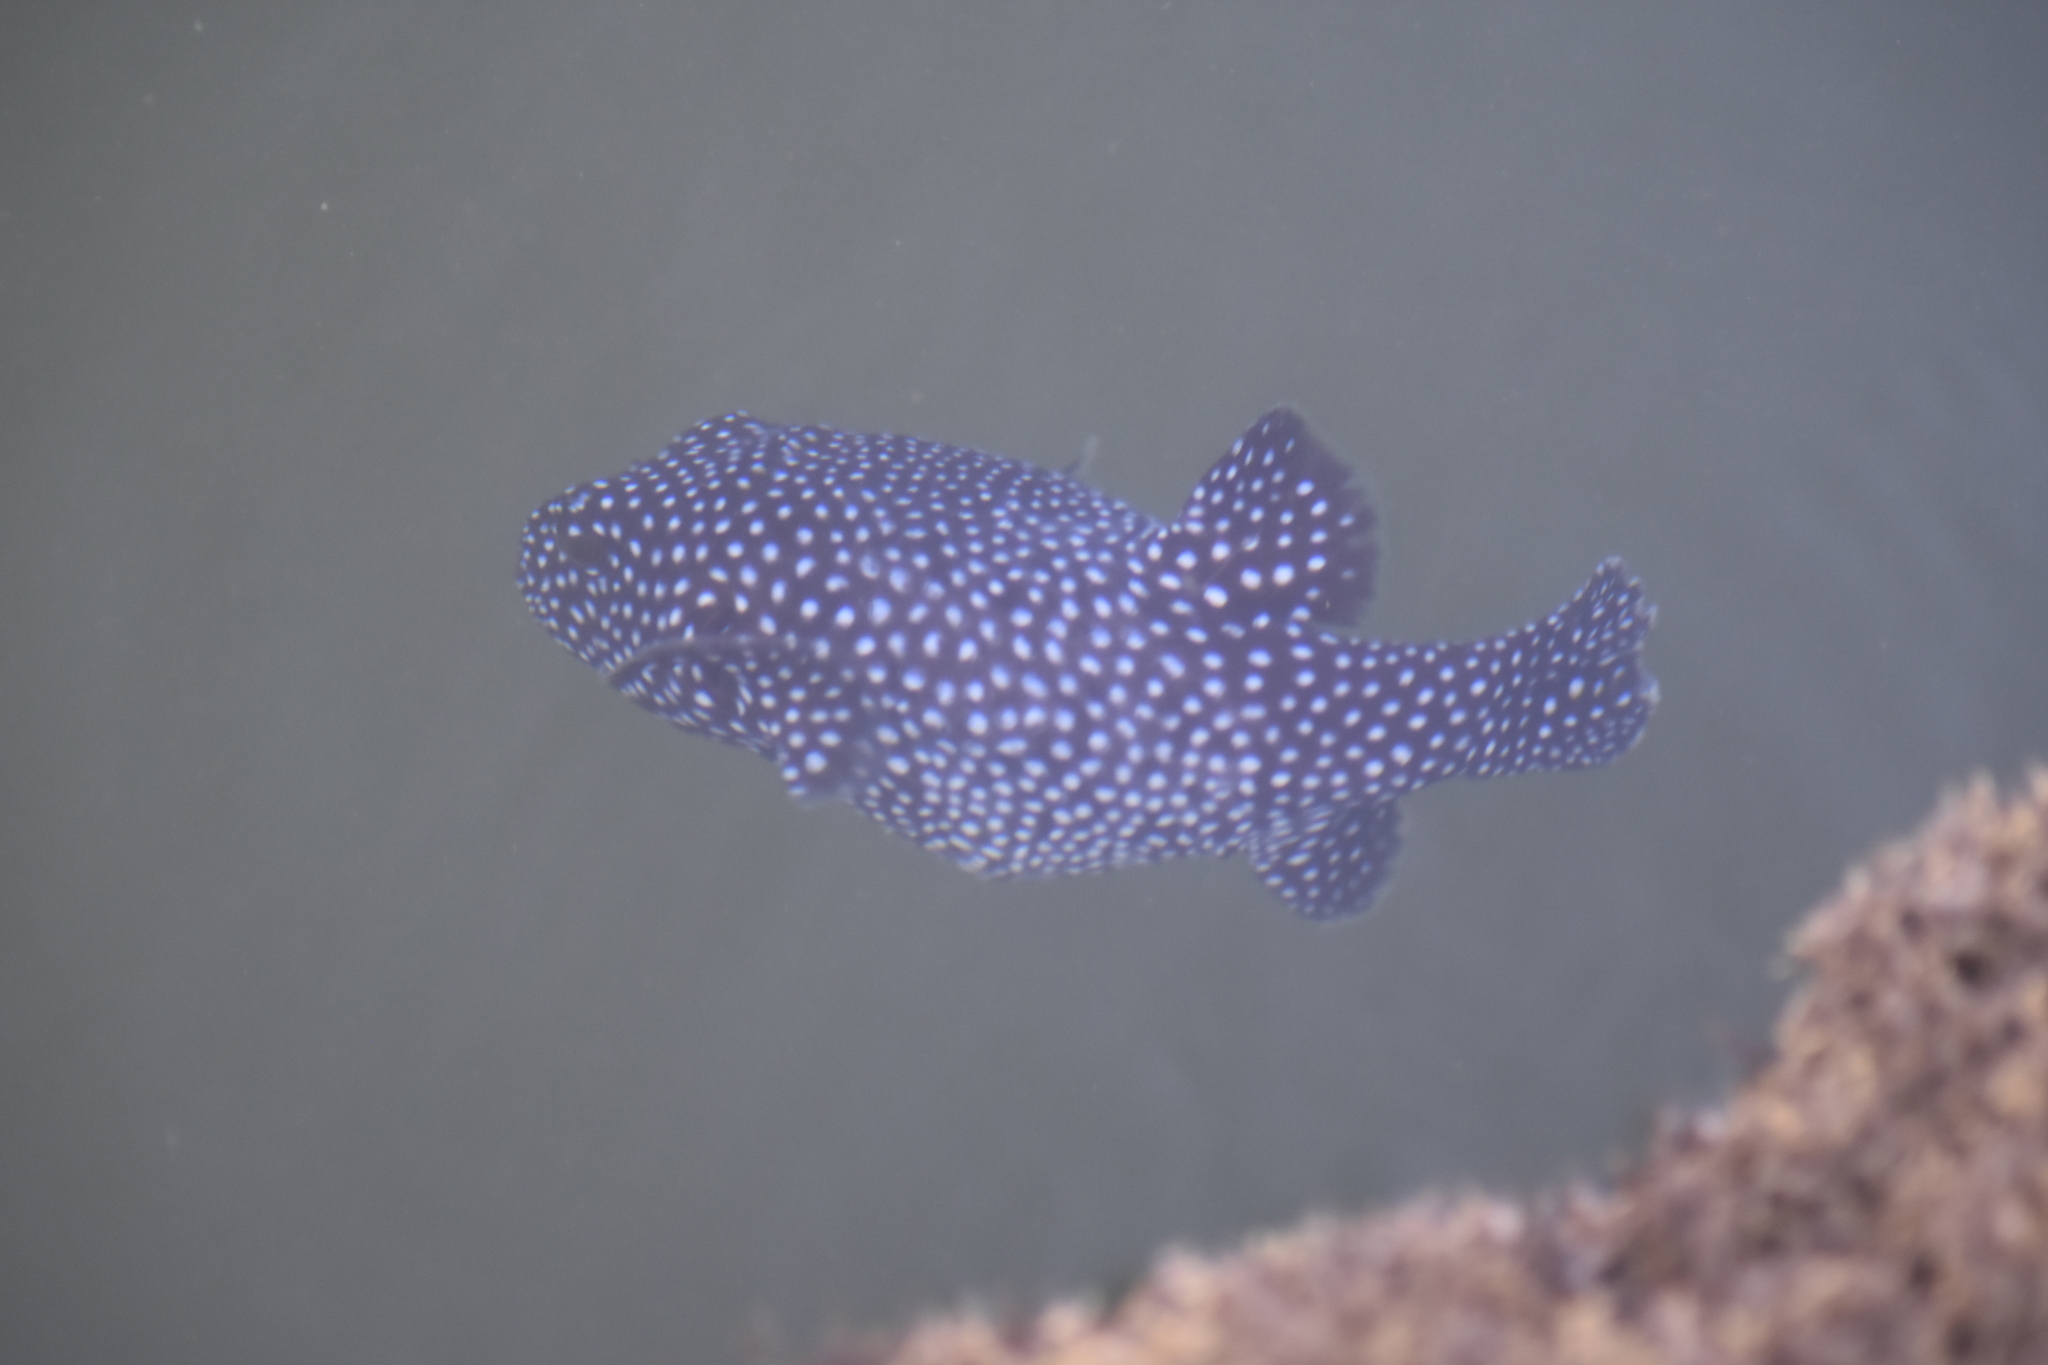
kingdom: Animalia
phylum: Chordata
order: Tetraodontiformes
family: Tetraodontidae
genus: Arothron
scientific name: Arothron meleagris
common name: Guinea-fowl pufferfish
